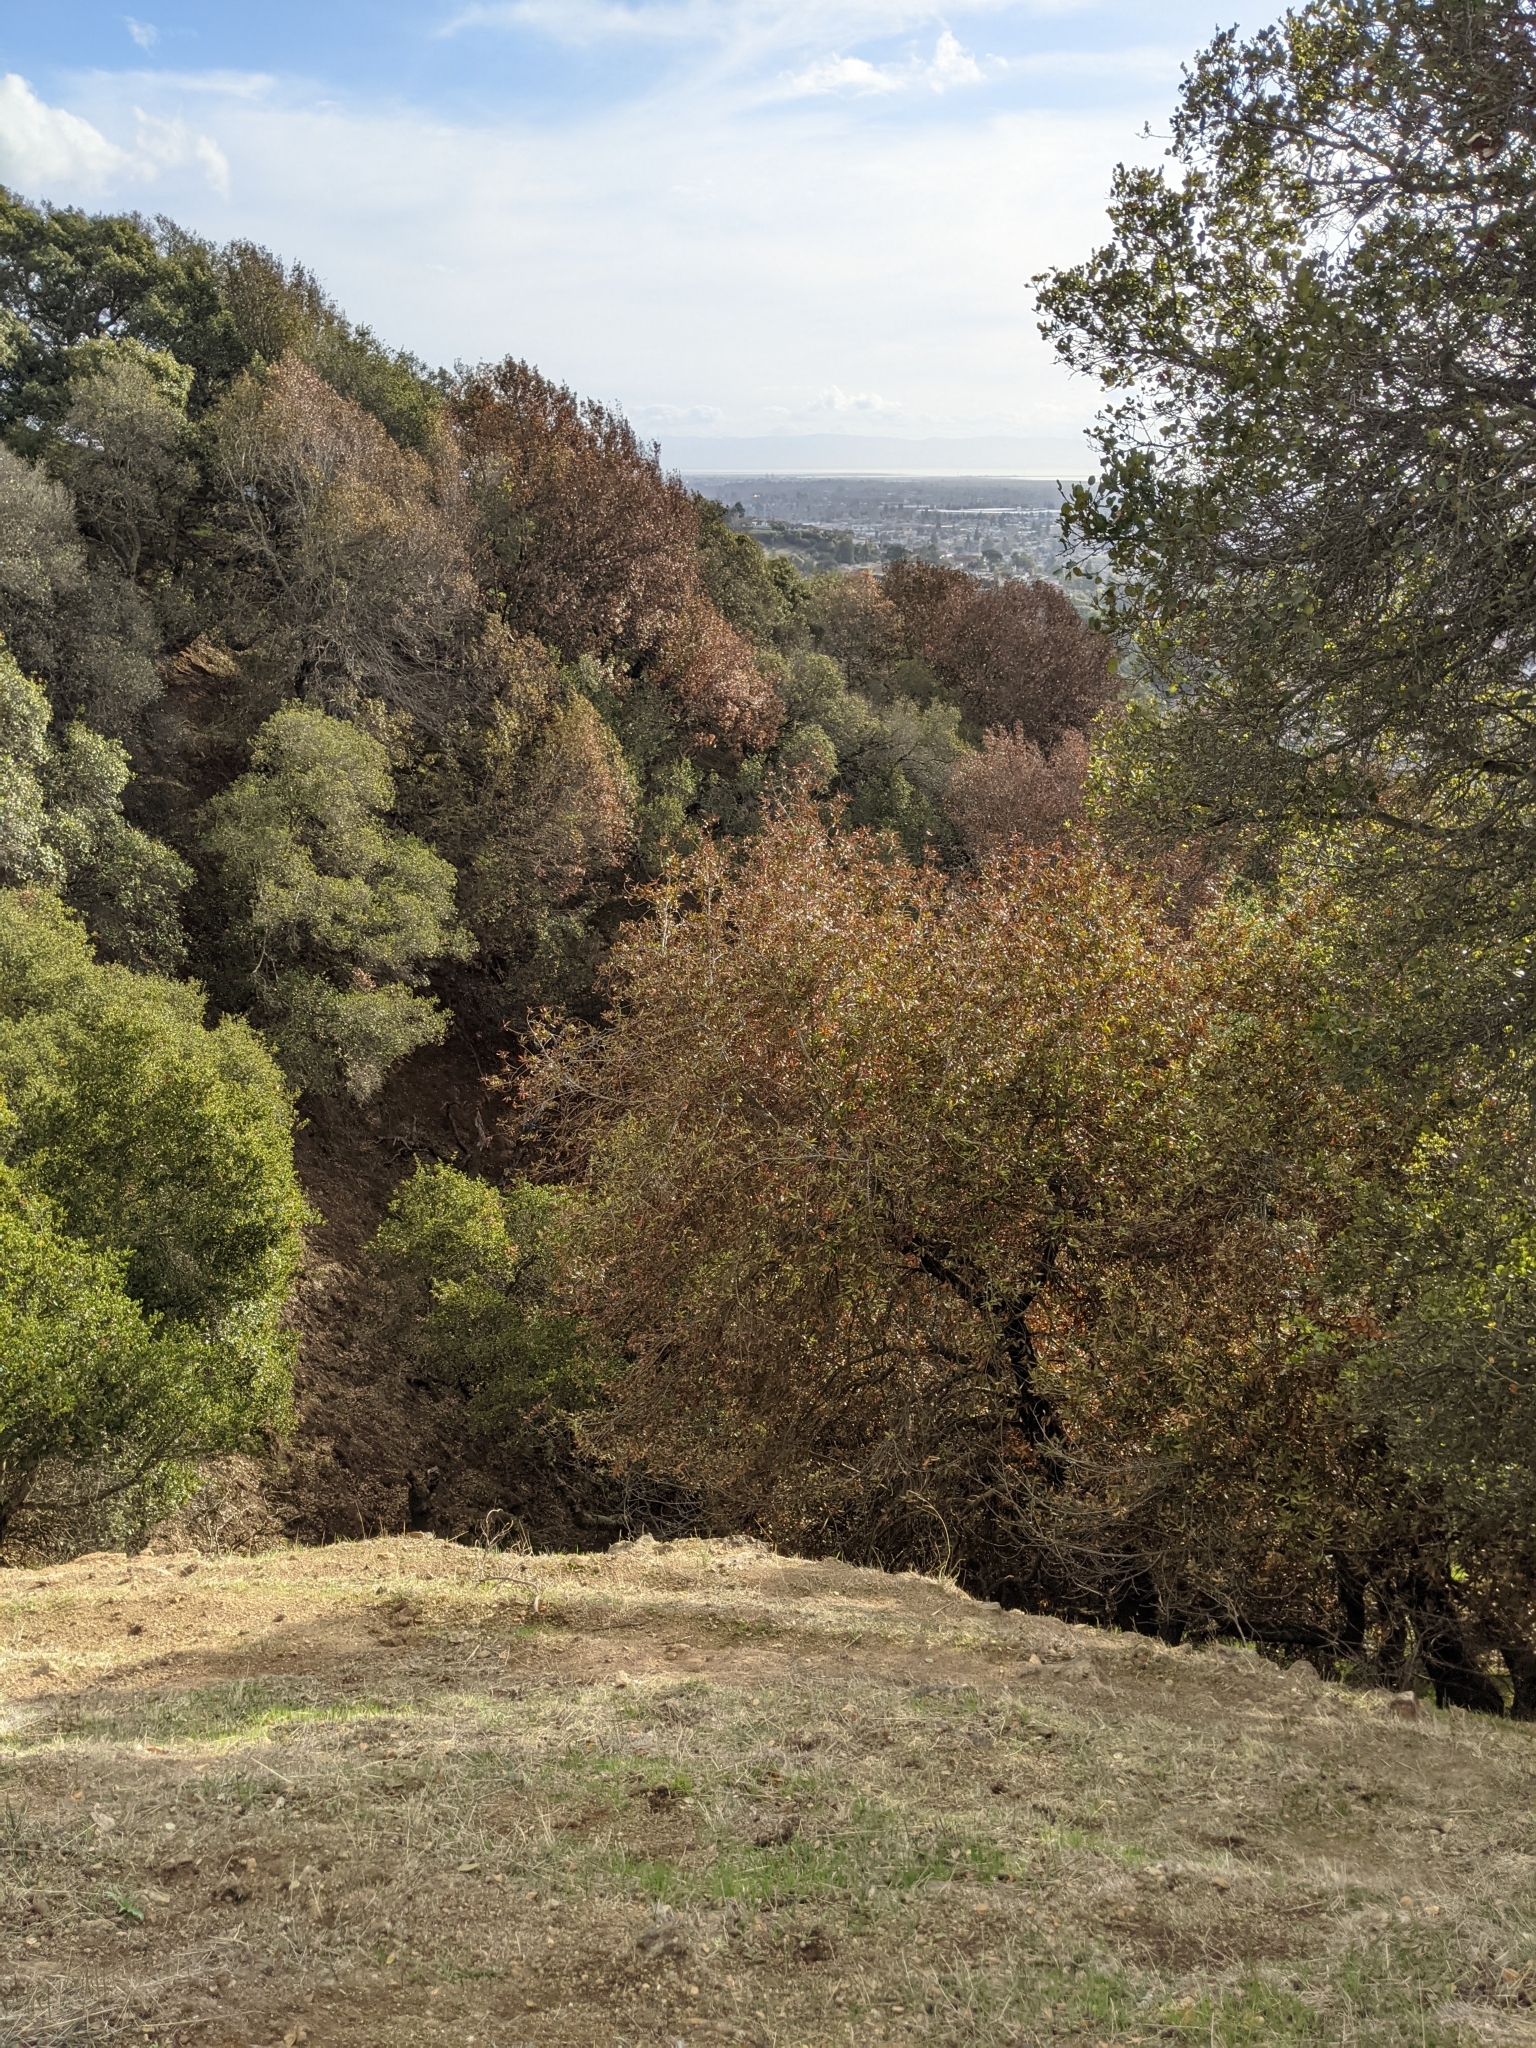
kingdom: Plantae
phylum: Tracheophyta
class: Magnoliopsida
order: Laurales
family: Lauraceae
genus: Umbellularia
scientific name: Umbellularia californica
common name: California bay
